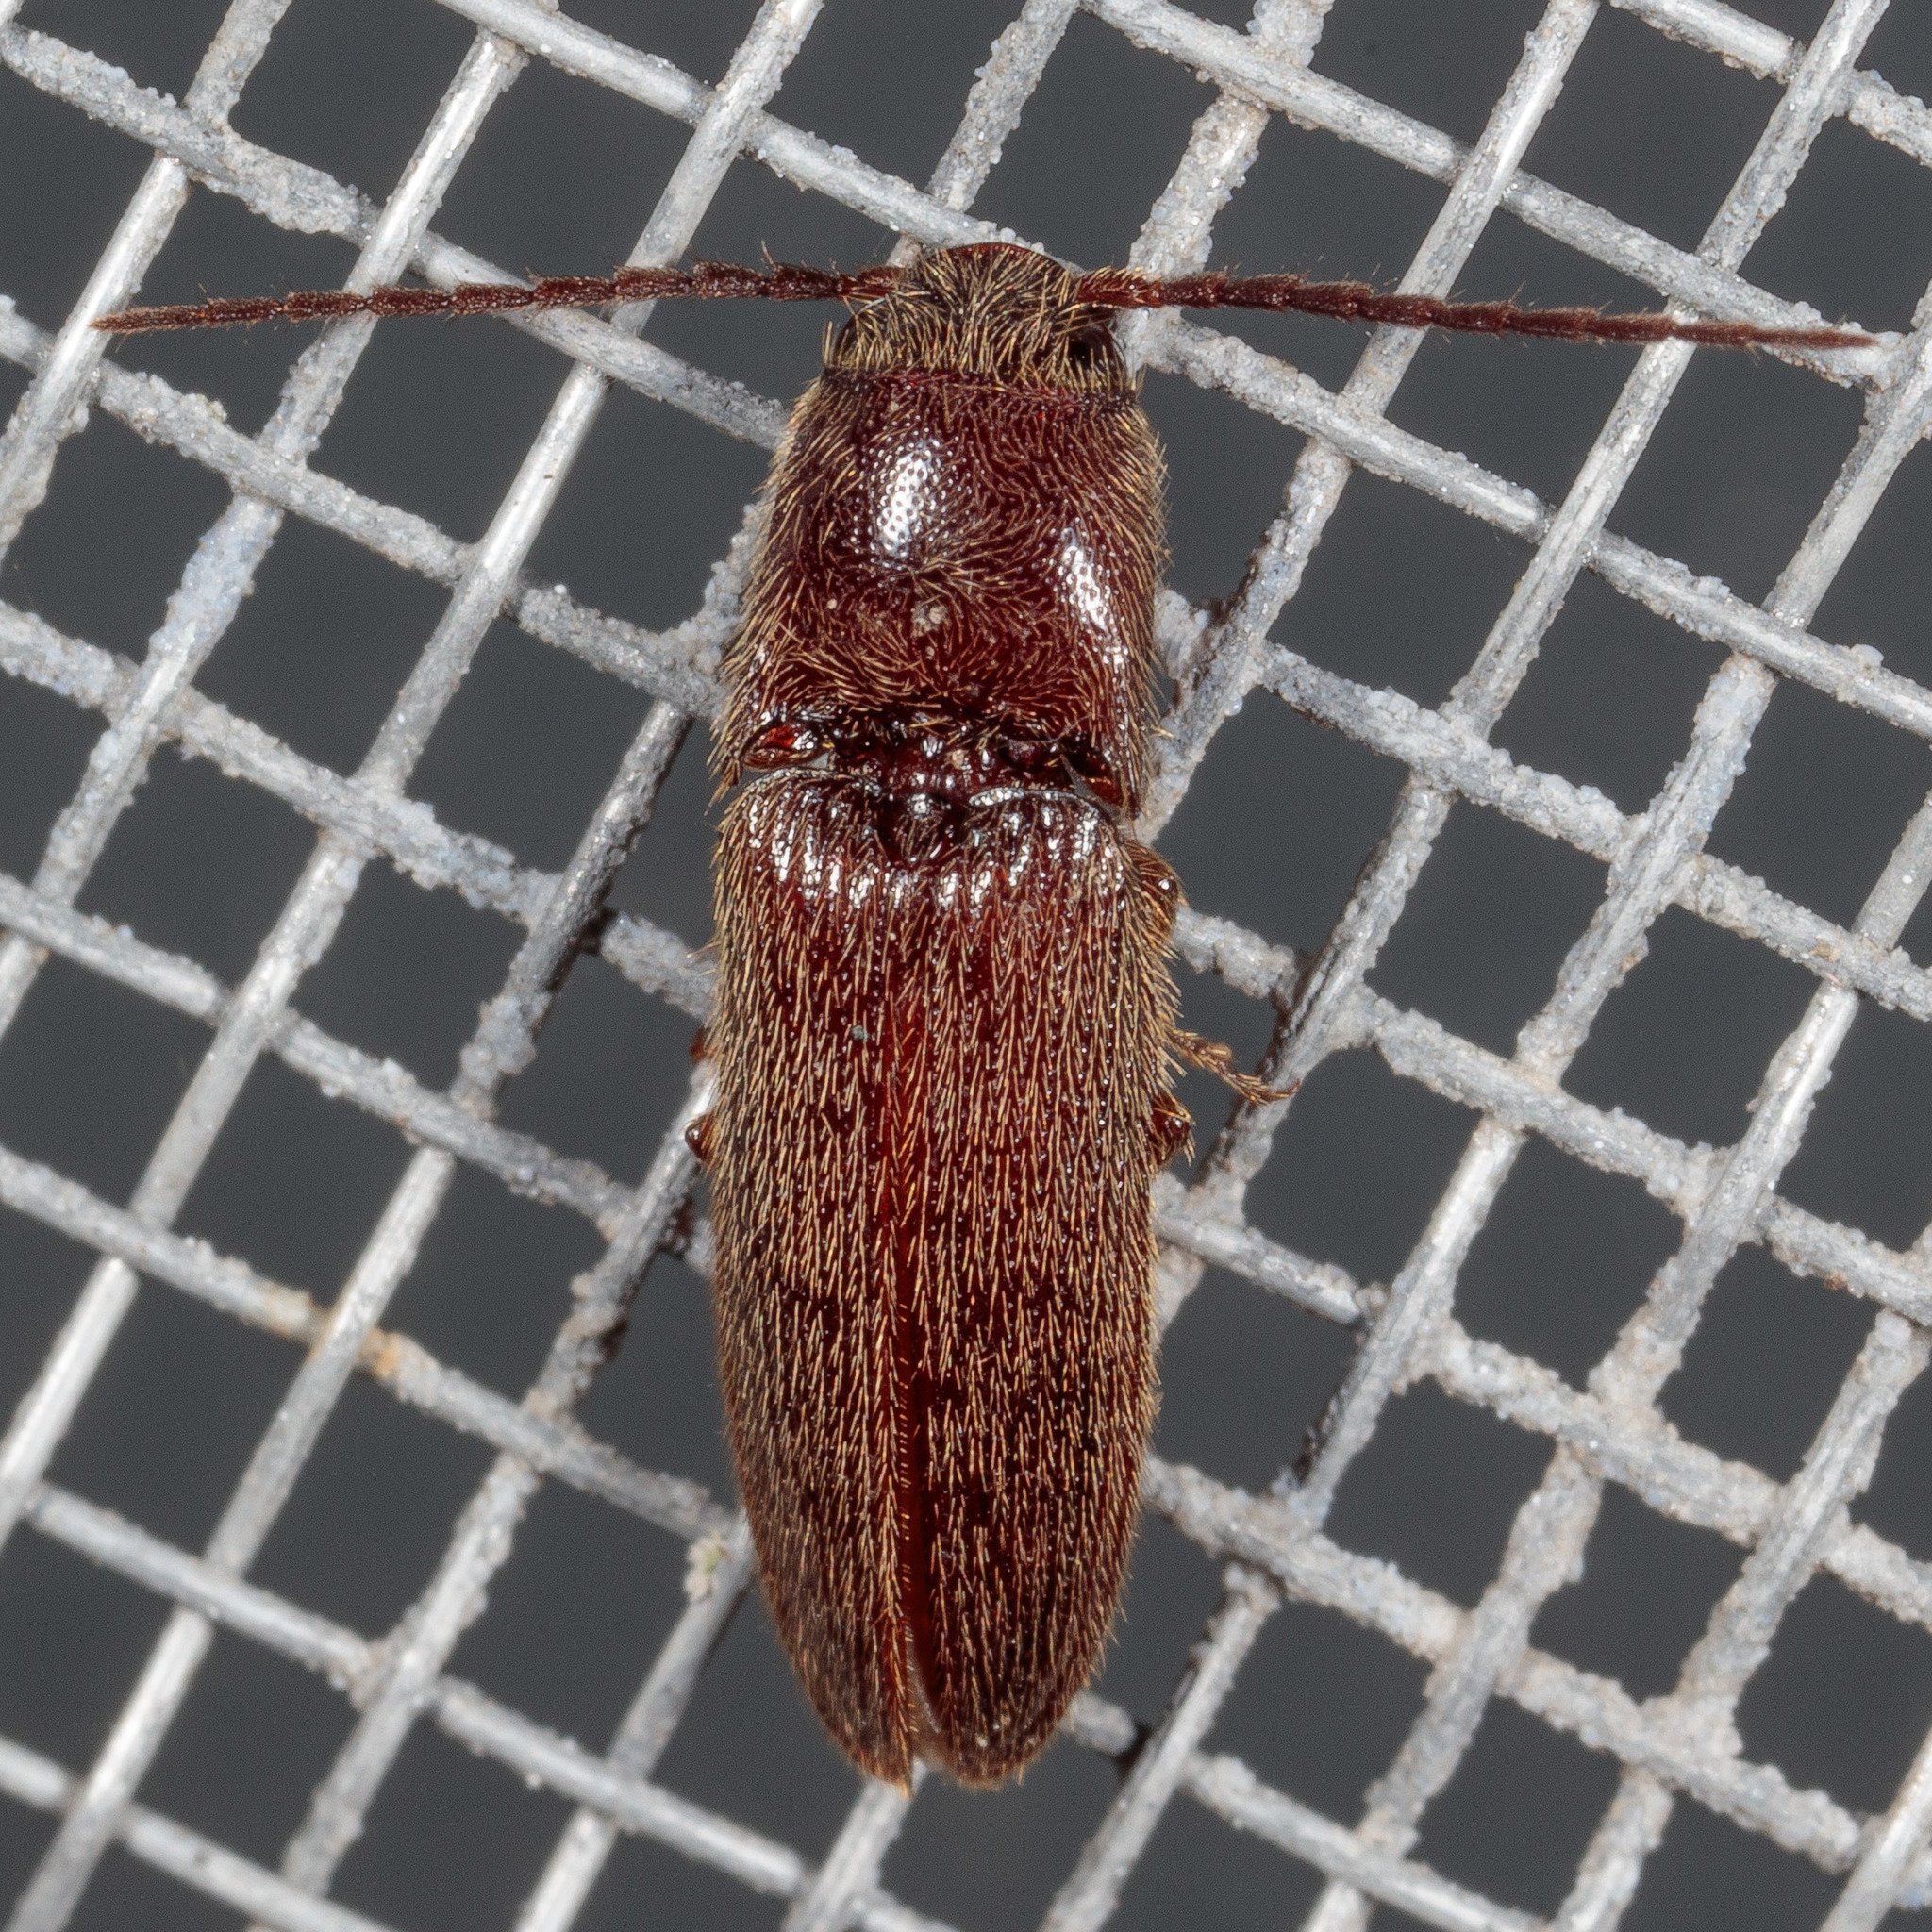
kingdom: Animalia
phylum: Arthropoda
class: Insecta
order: Coleoptera
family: Elateridae
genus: Dipropus
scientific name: Dipropus
